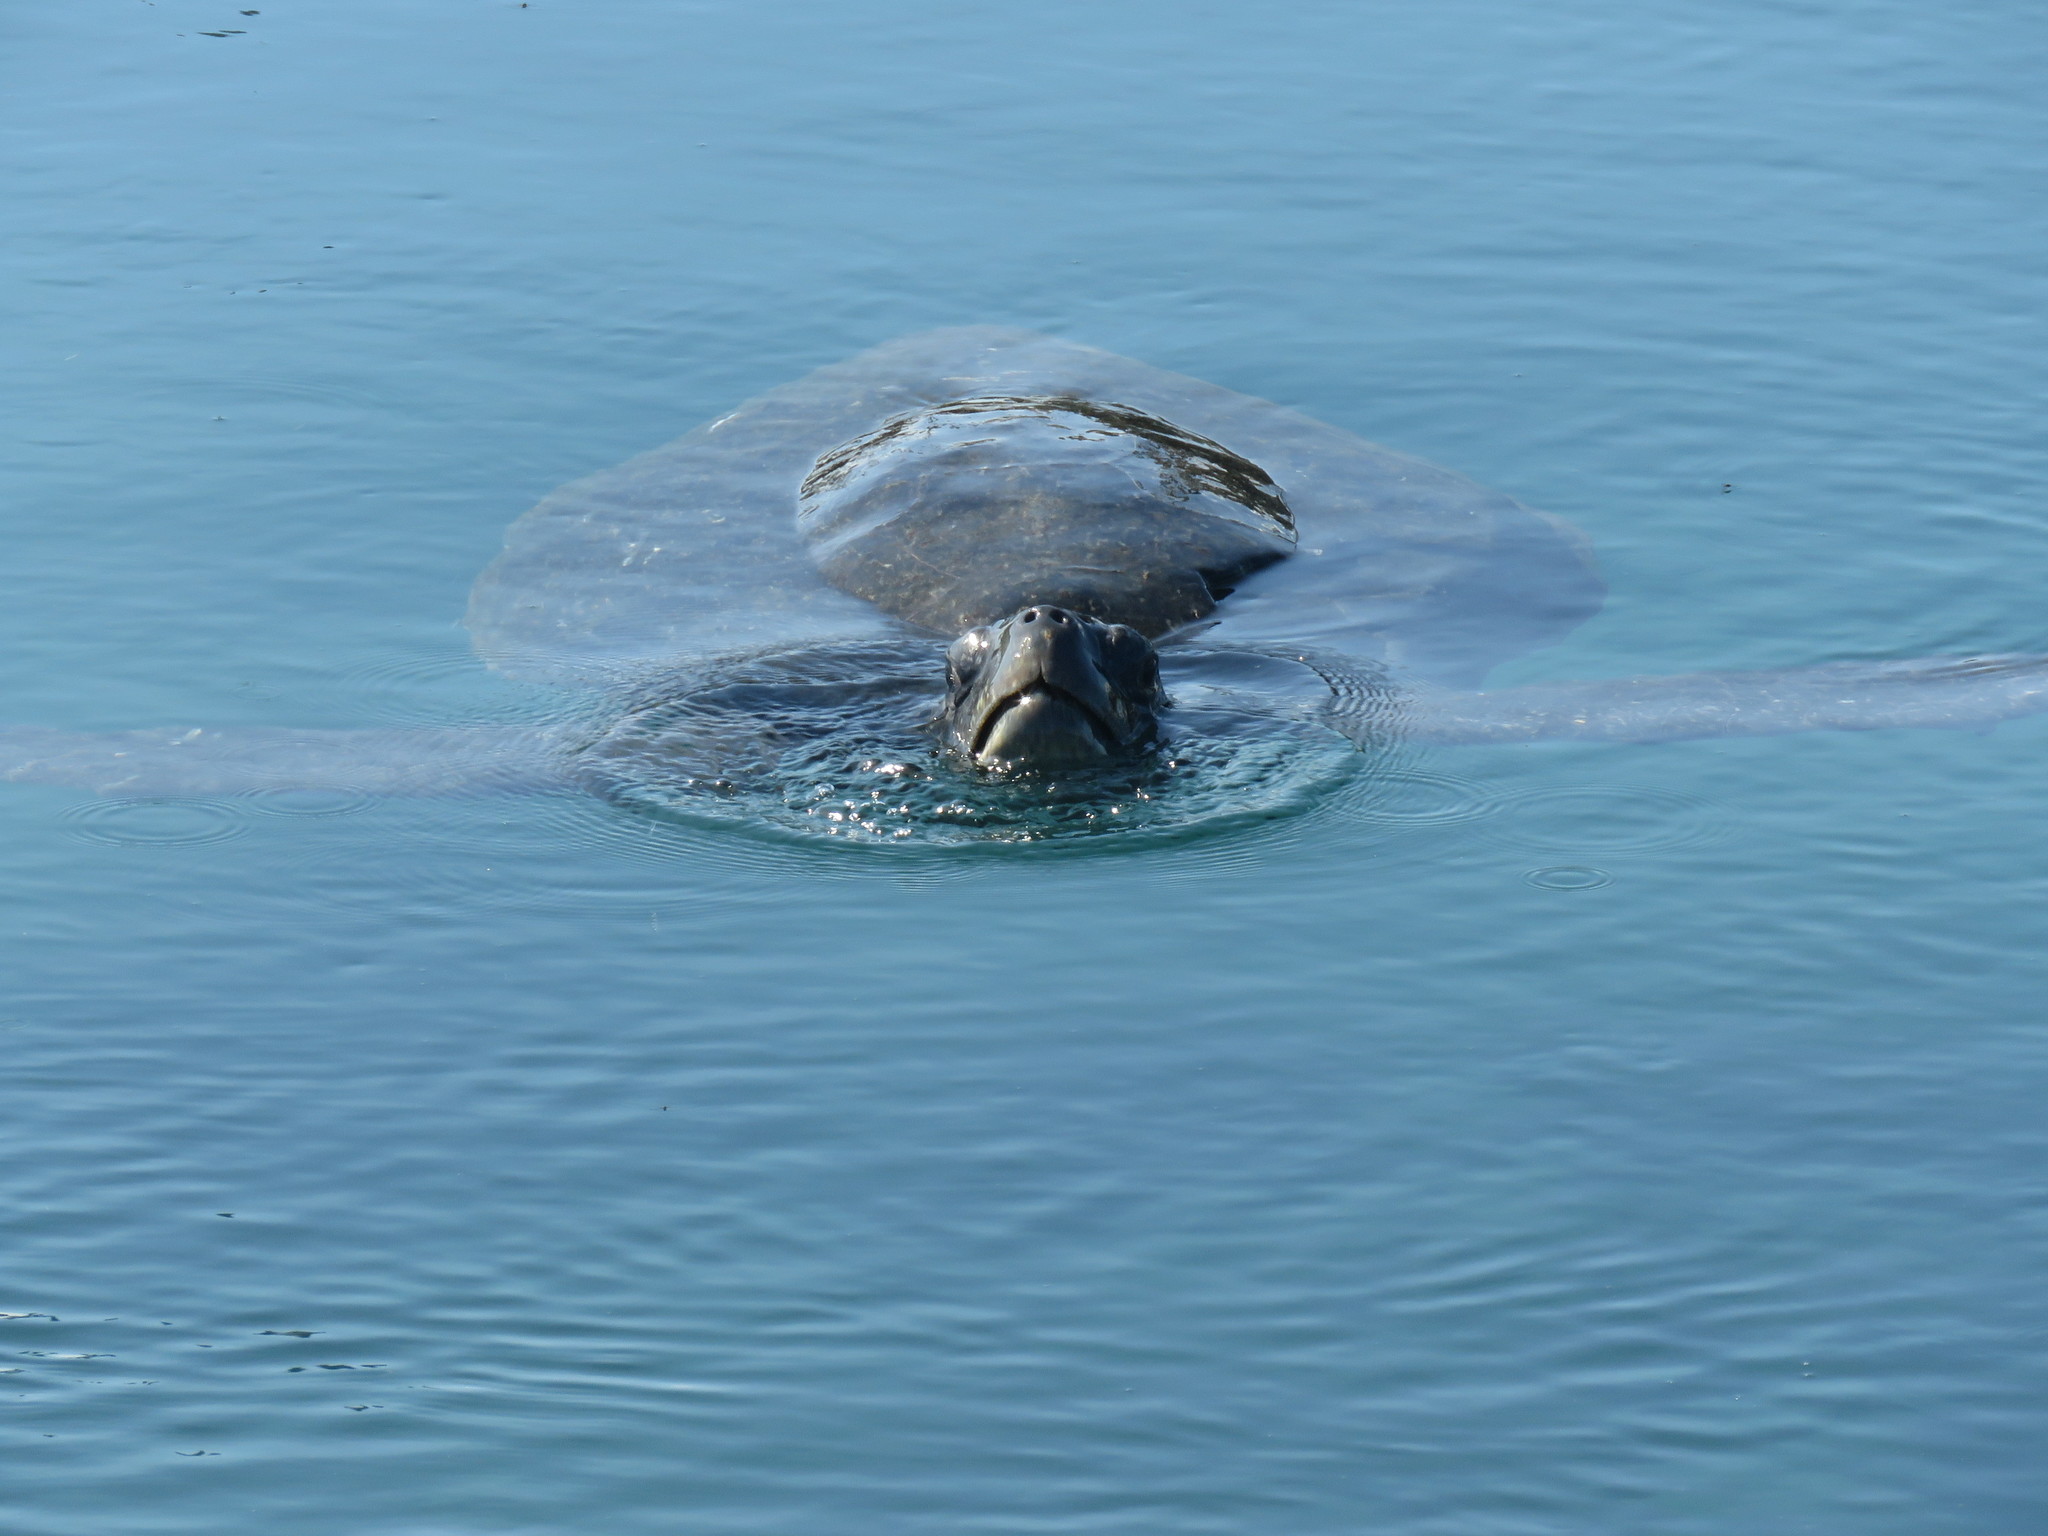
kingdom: Animalia
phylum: Chordata
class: Testudines
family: Cheloniidae
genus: Chelonia
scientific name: Chelonia mydas
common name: Green turtle
